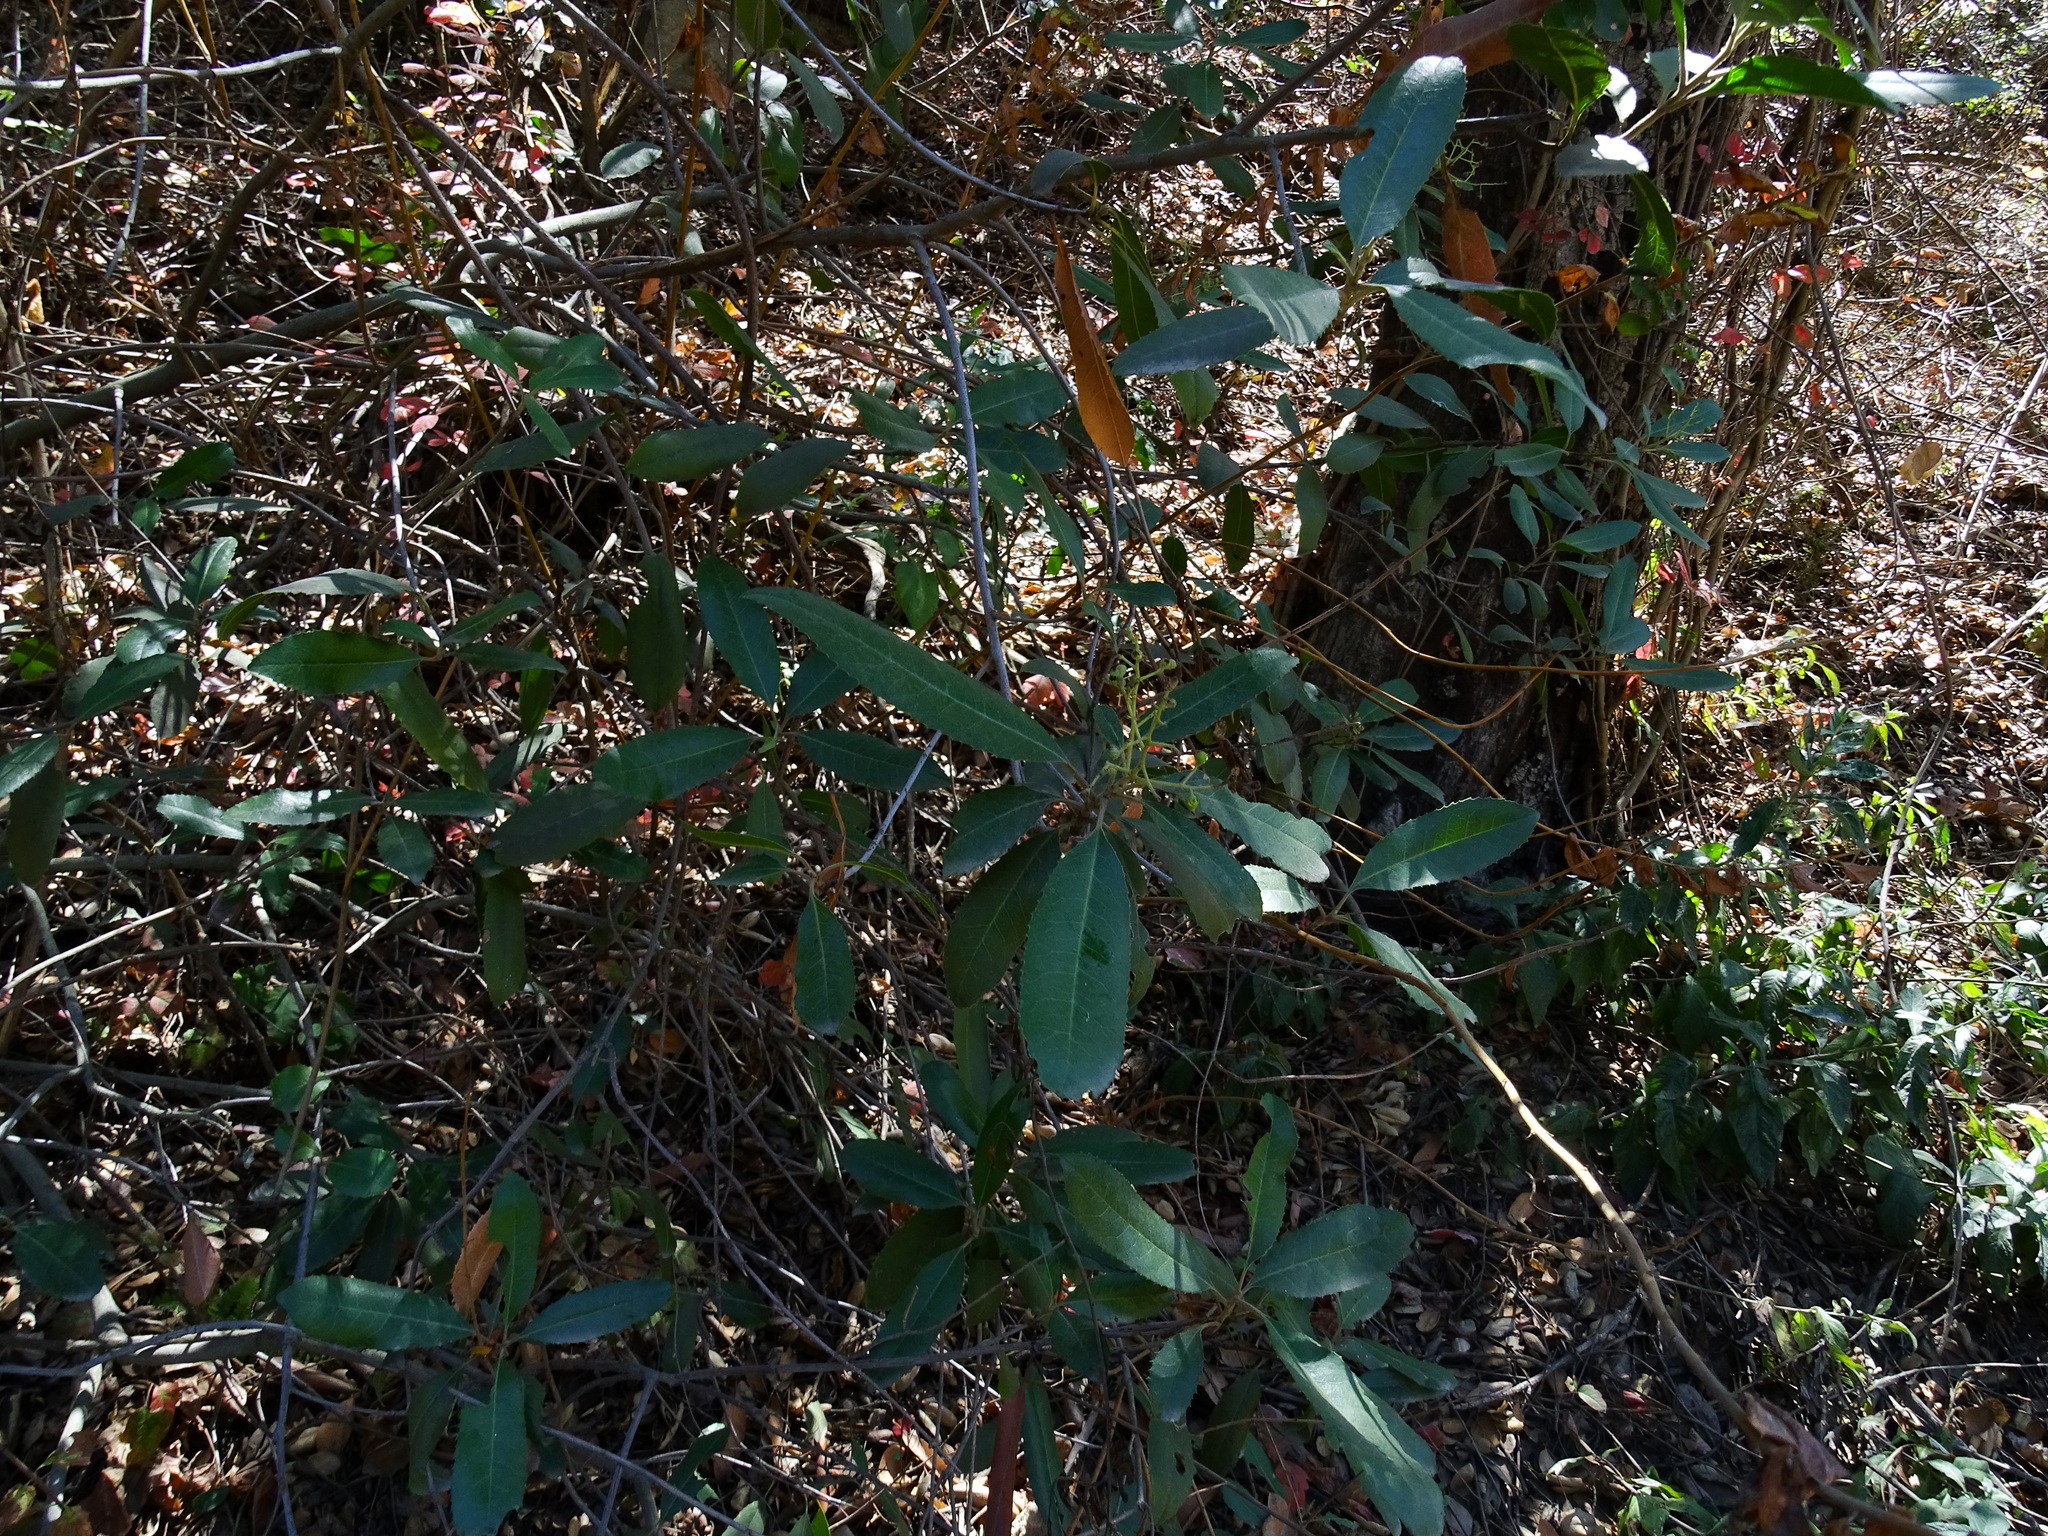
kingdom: Plantae
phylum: Tracheophyta
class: Magnoliopsida
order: Rosales
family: Rosaceae
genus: Heteromeles
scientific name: Heteromeles arbutifolia
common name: California-holly
